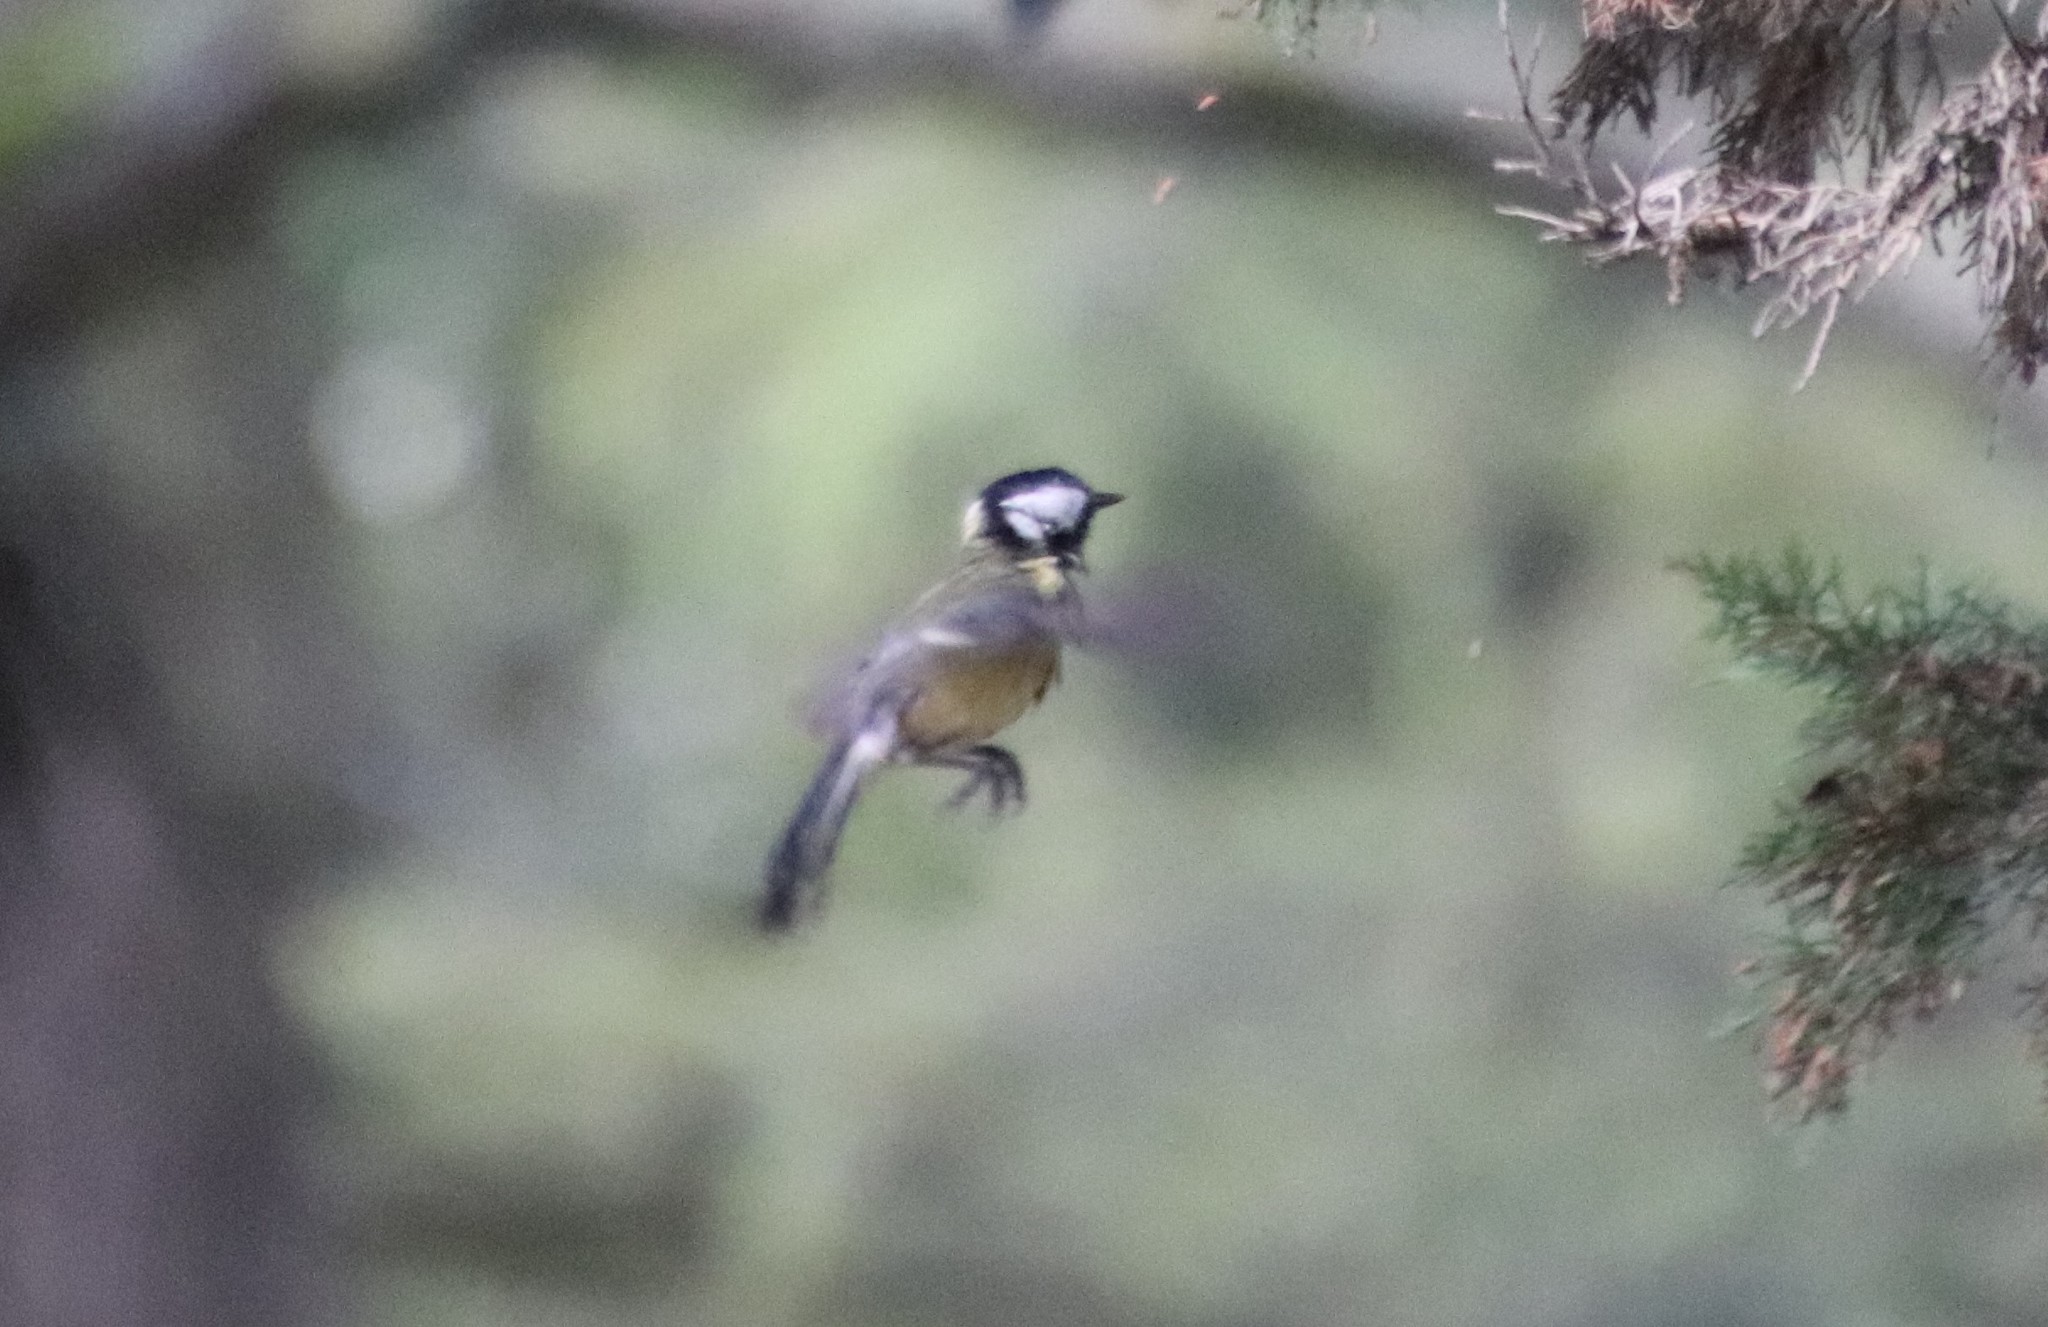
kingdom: Animalia
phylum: Chordata
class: Aves
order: Passeriformes
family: Paridae
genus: Parus
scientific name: Parus major
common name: Great tit
